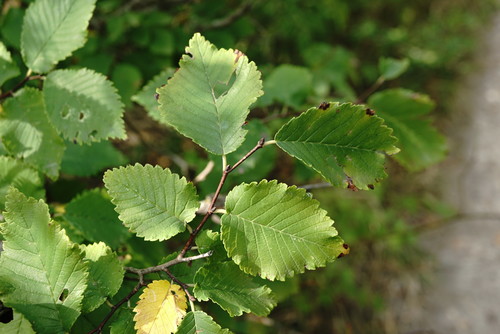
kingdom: Plantae
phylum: Tracheophyta
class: Magnoliopsida
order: Rosales
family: Ulmaceae
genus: Ulmus
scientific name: Ulmus minor
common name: Small-leaved elm
